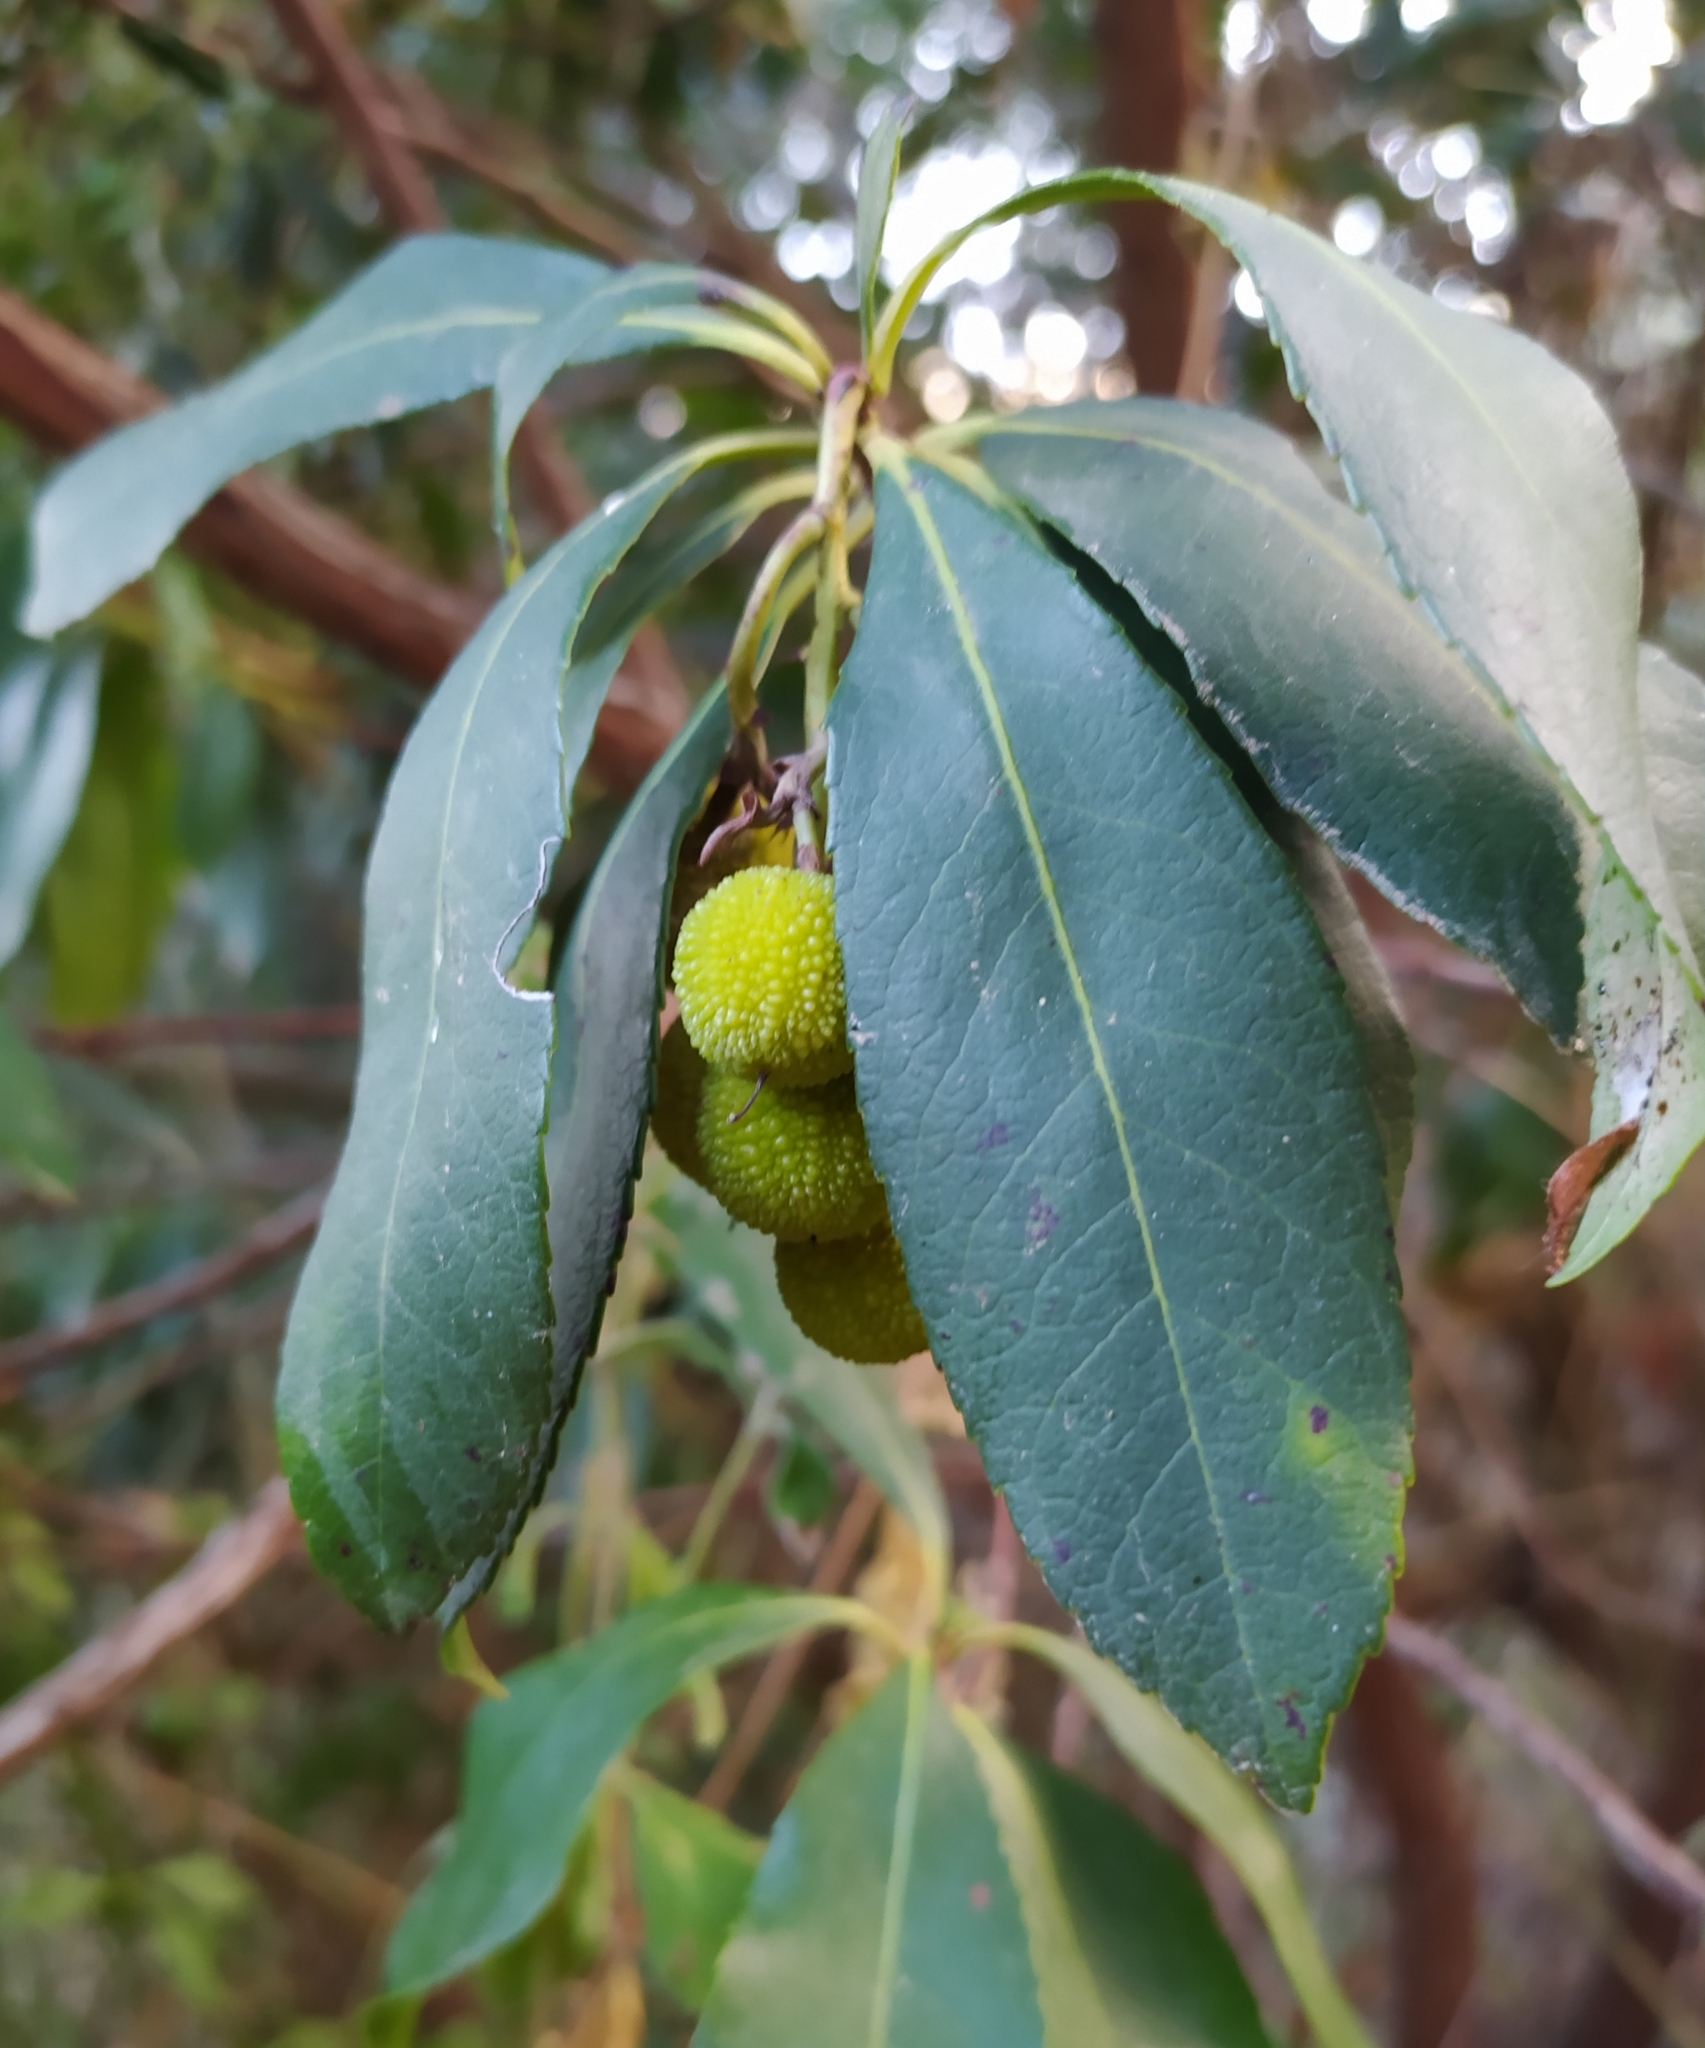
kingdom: Plantae
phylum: Tracheophyta
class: Magnoliopsida
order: Ericales
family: Ericaceae
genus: Arbutus
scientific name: Arbutus unedo
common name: Strawberry-tree
